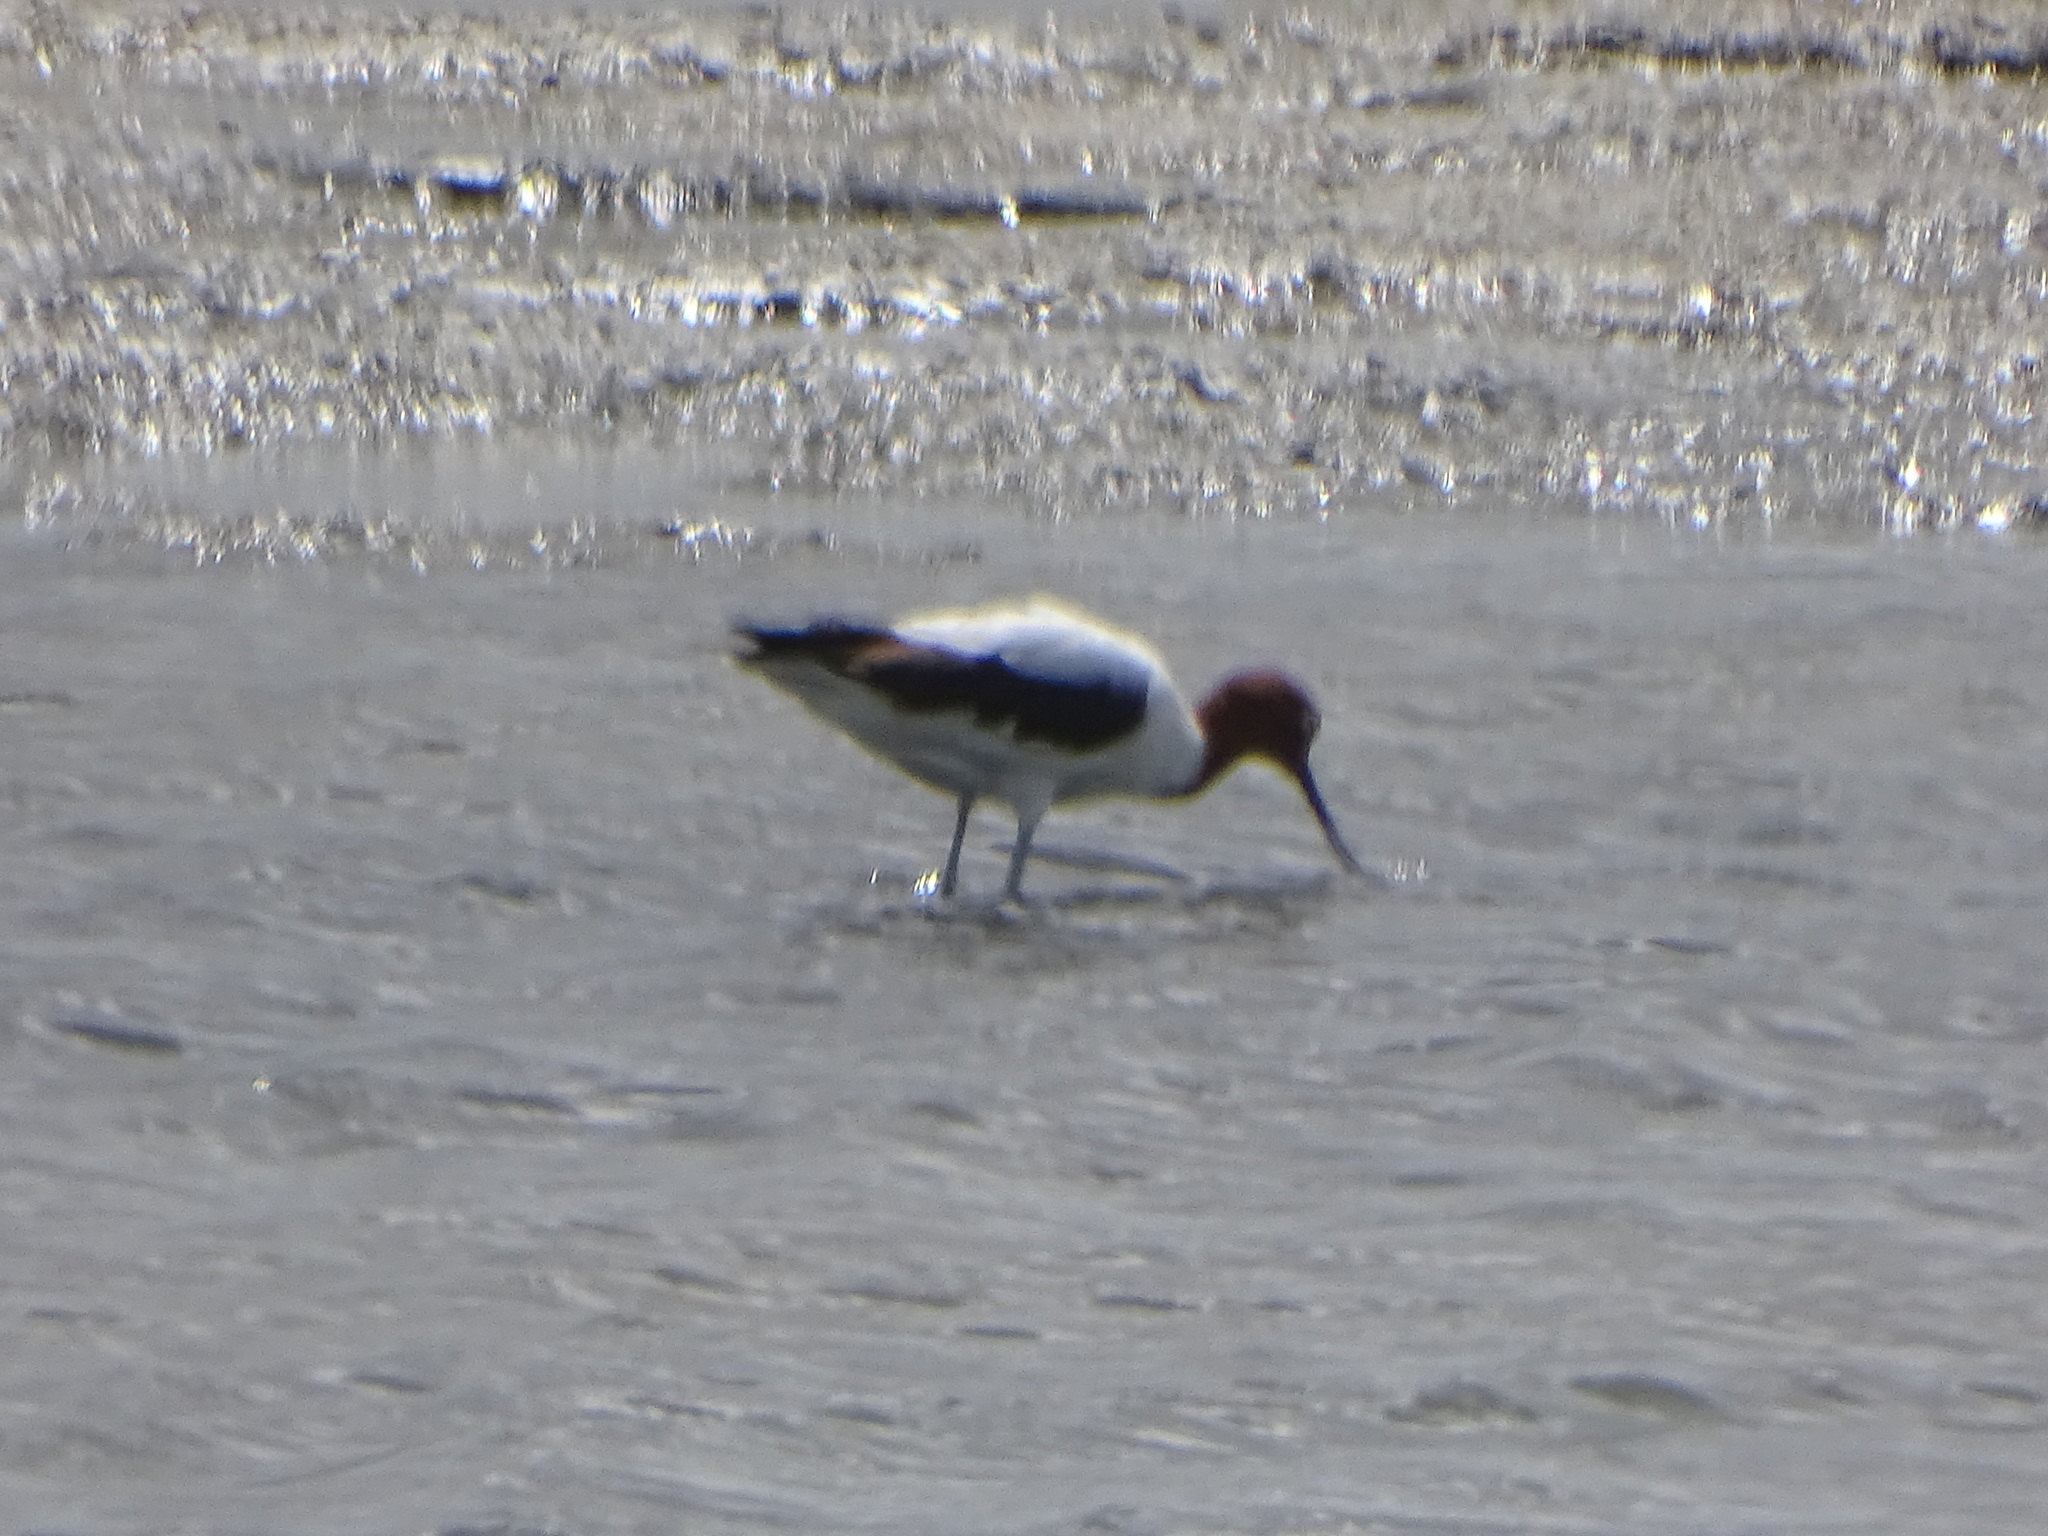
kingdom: Animalia
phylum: Chordata
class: Aves
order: Charadriiformes
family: Recurvirostridae
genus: Recurvirostra
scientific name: Recurvirostra novaehollandiae
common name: Red-necked avocet
